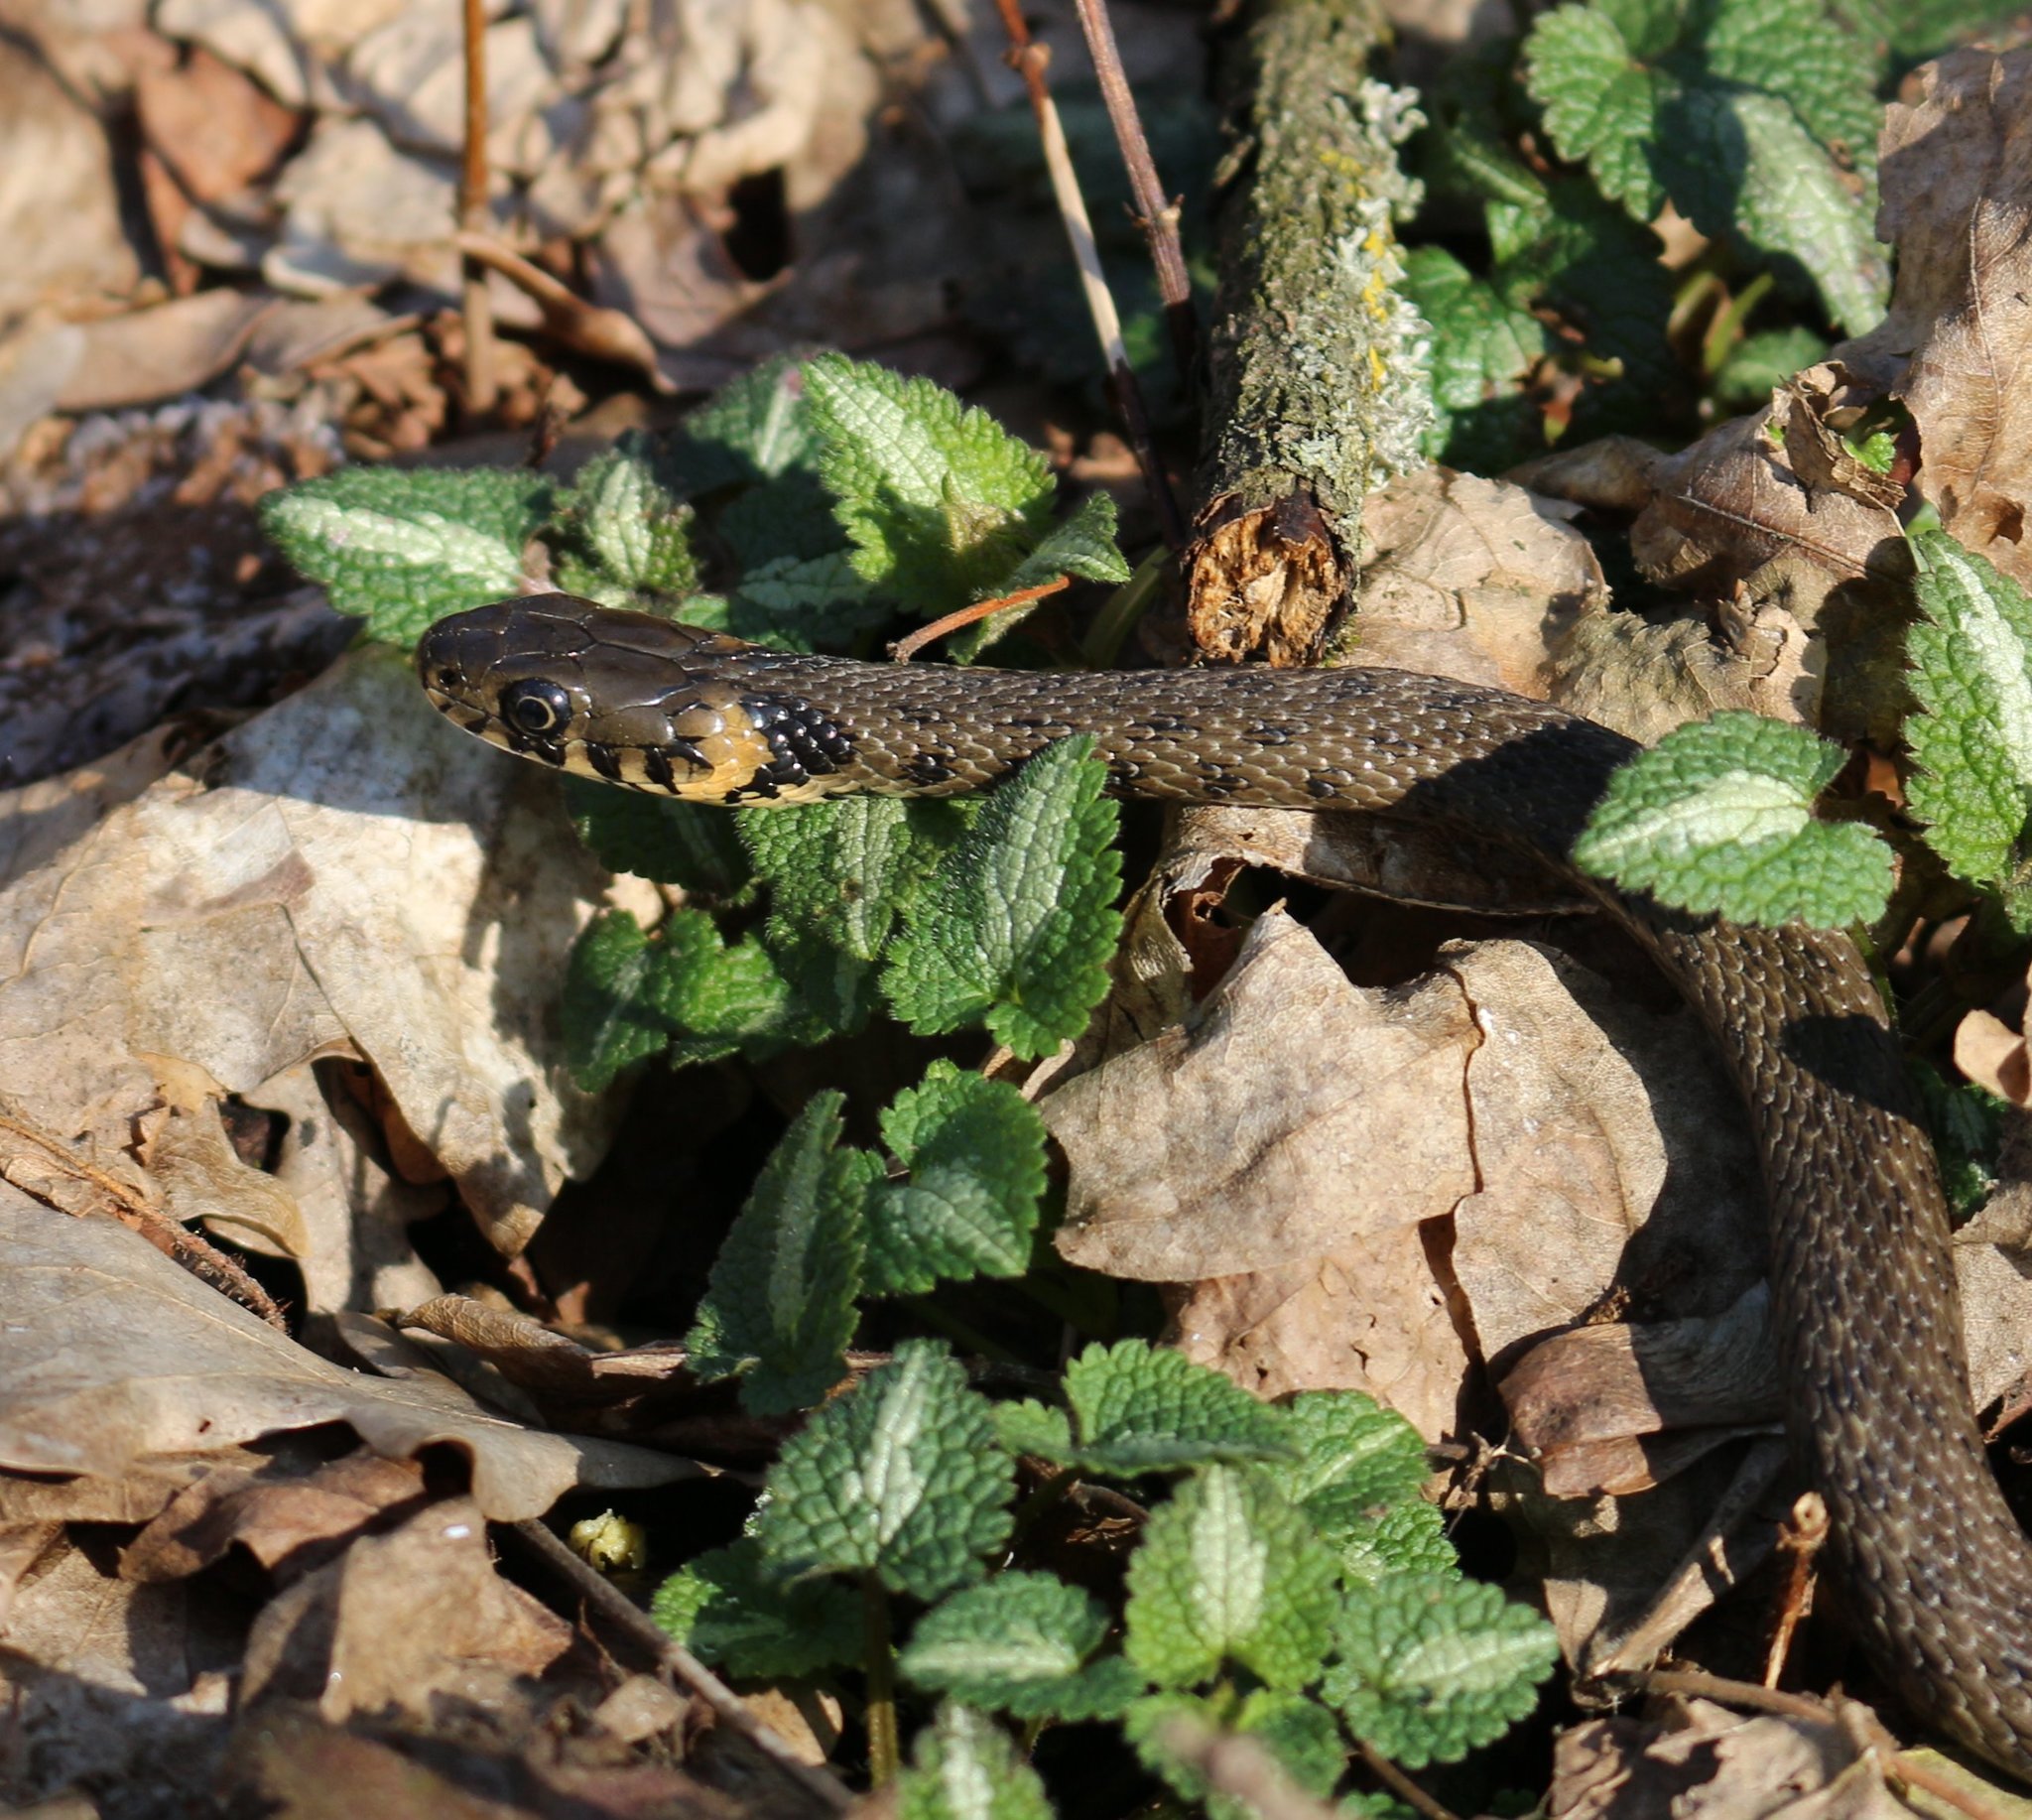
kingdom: Animalia
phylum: Chordata
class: Squamata
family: Colubridae
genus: Natrix
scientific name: Natrix natrix
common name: Grass snake
